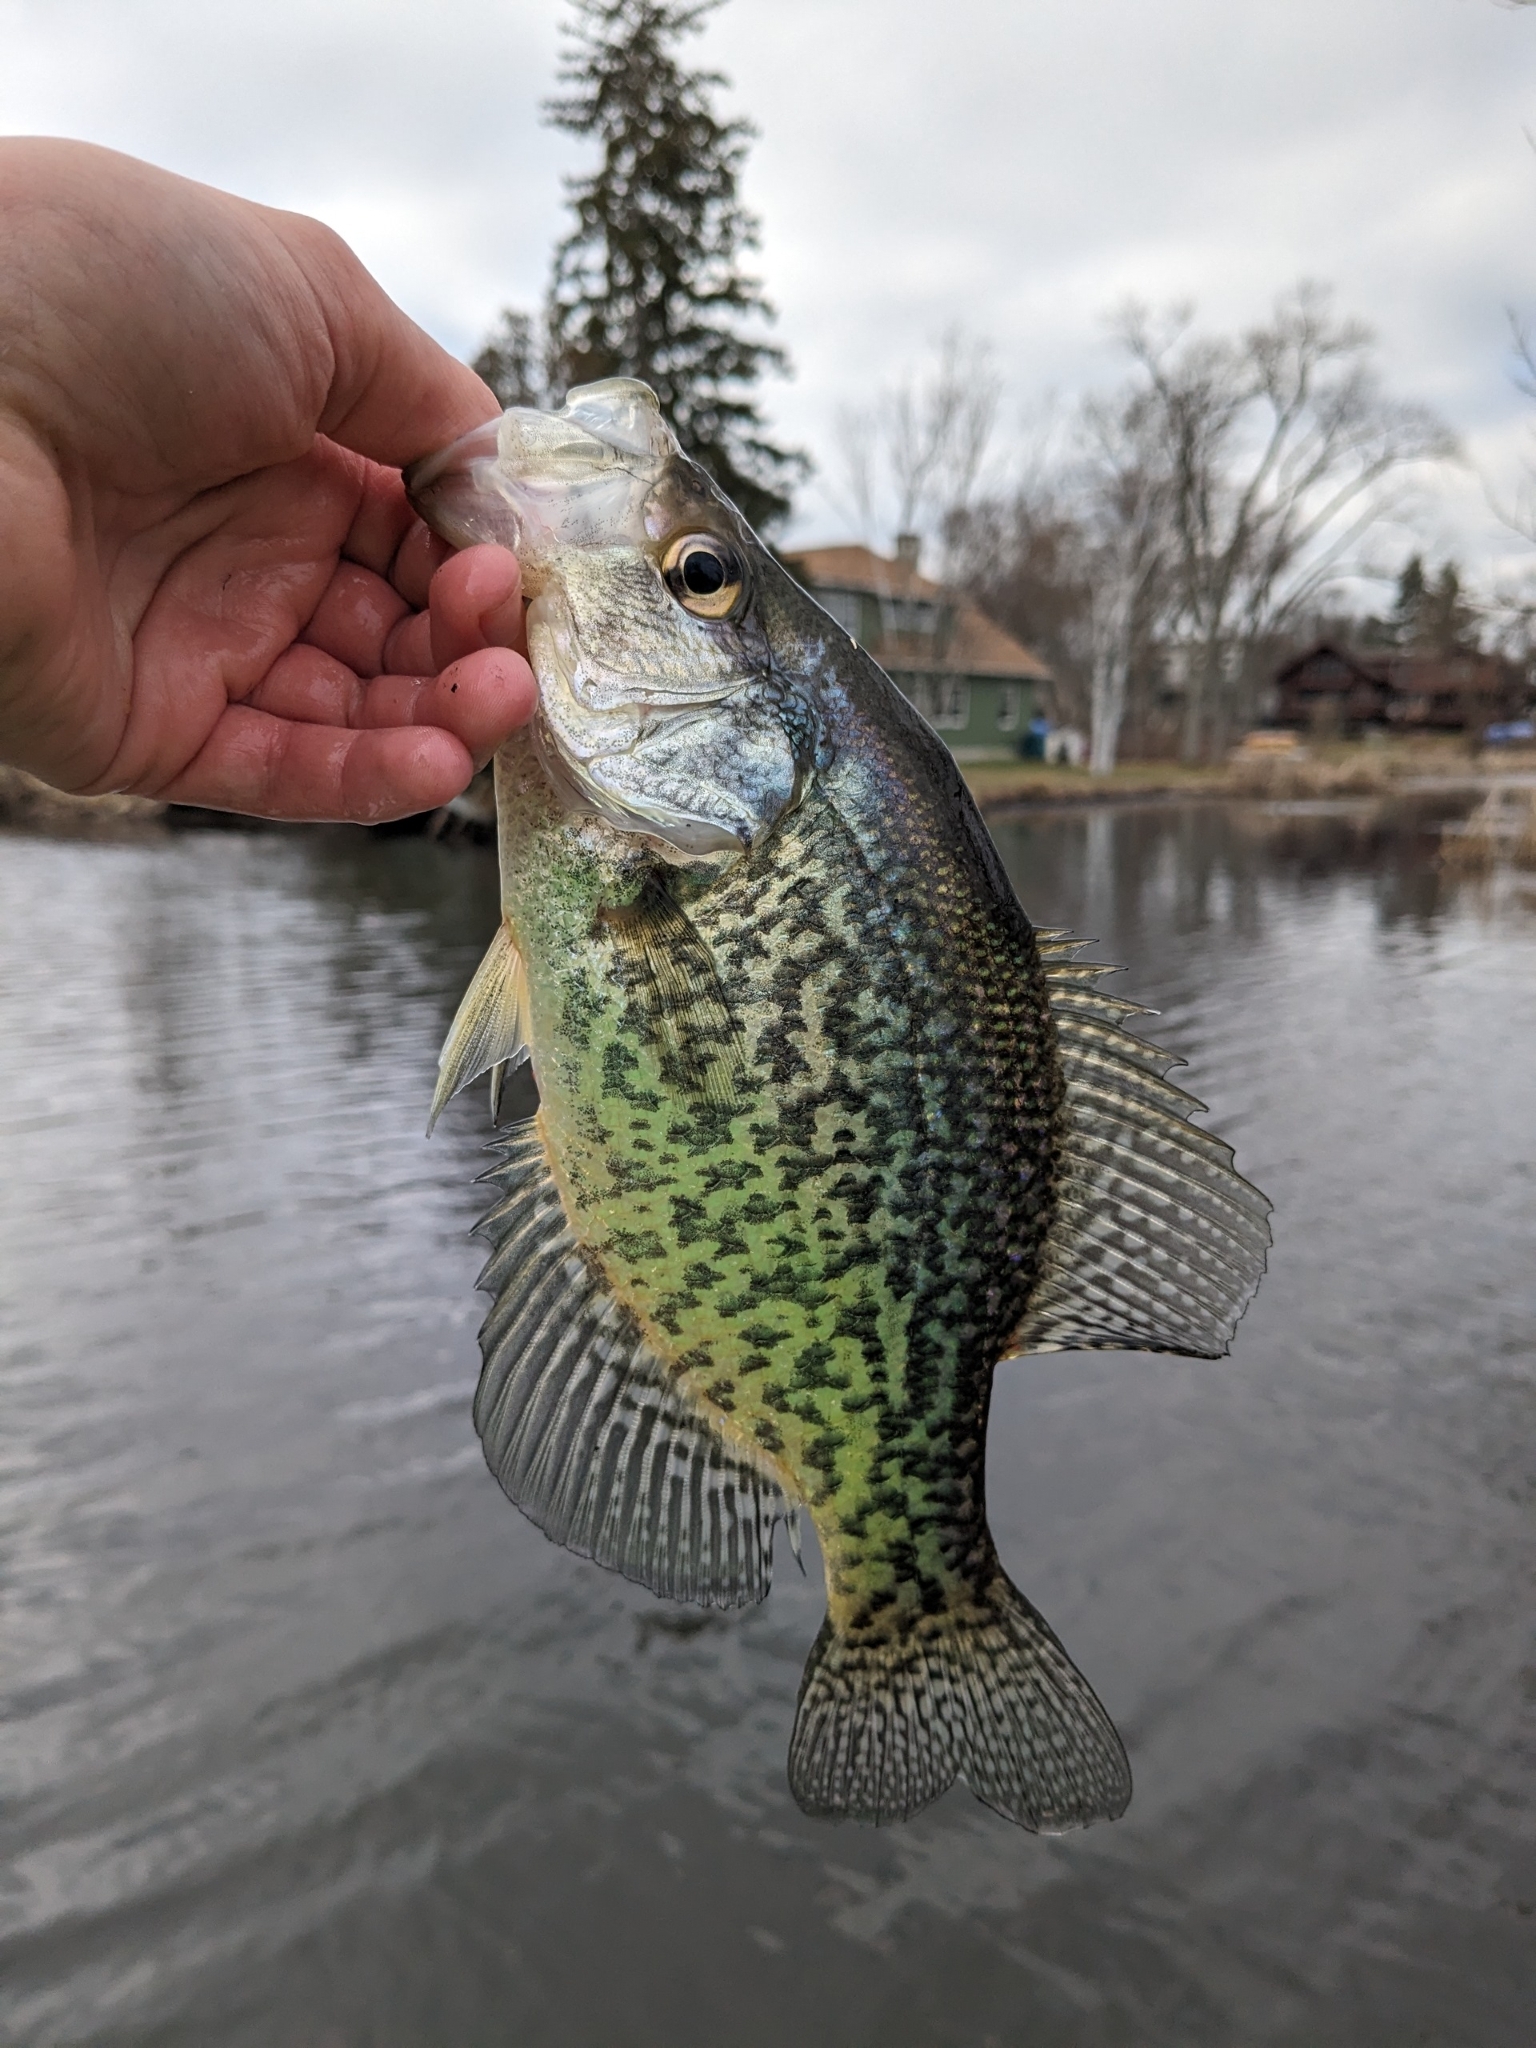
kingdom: Animalia
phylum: Chordata
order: Perciformes
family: Centrarchidae
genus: Pomoxis
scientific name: Pomoxis nigromaculatus
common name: Black crappie
